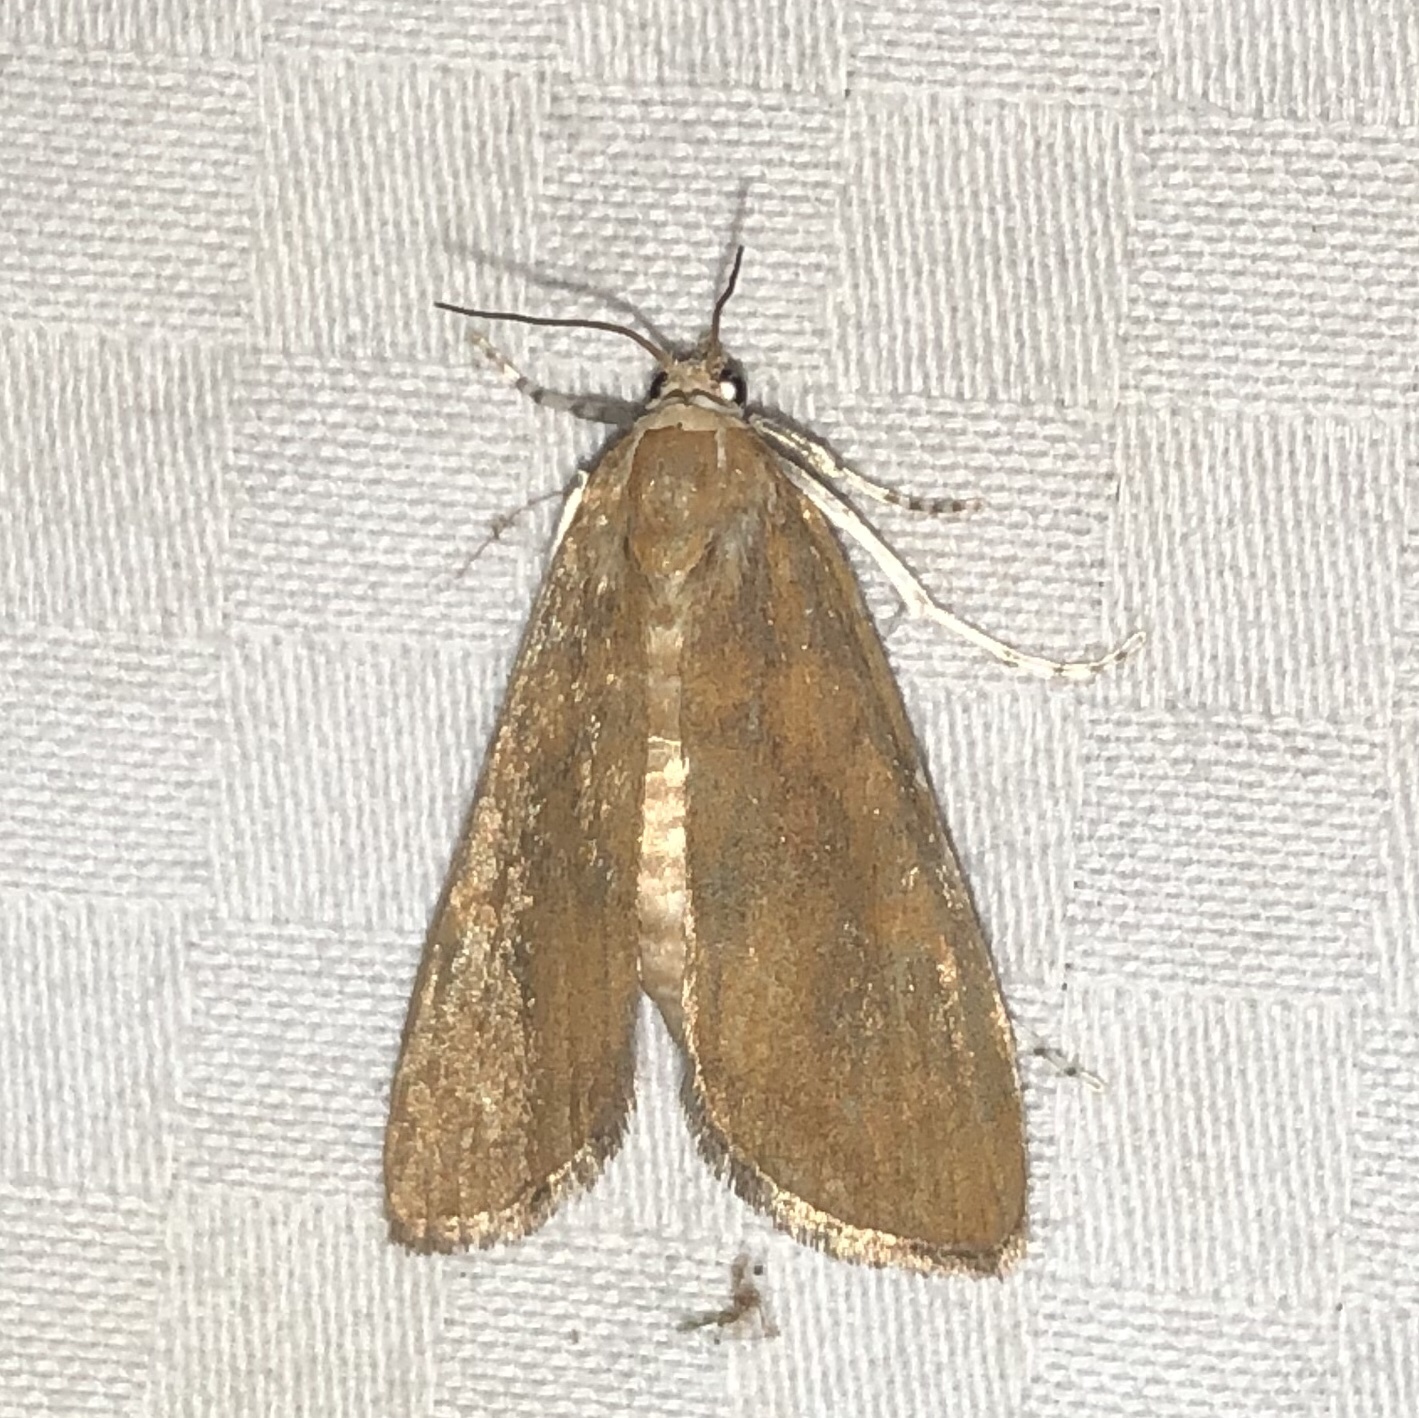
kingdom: Animalia
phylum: Arthropoda
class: Insecta
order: Lepidoptera
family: Crambidae
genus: Elophila
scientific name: Elophila gyralis
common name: Waterlily borer moth
